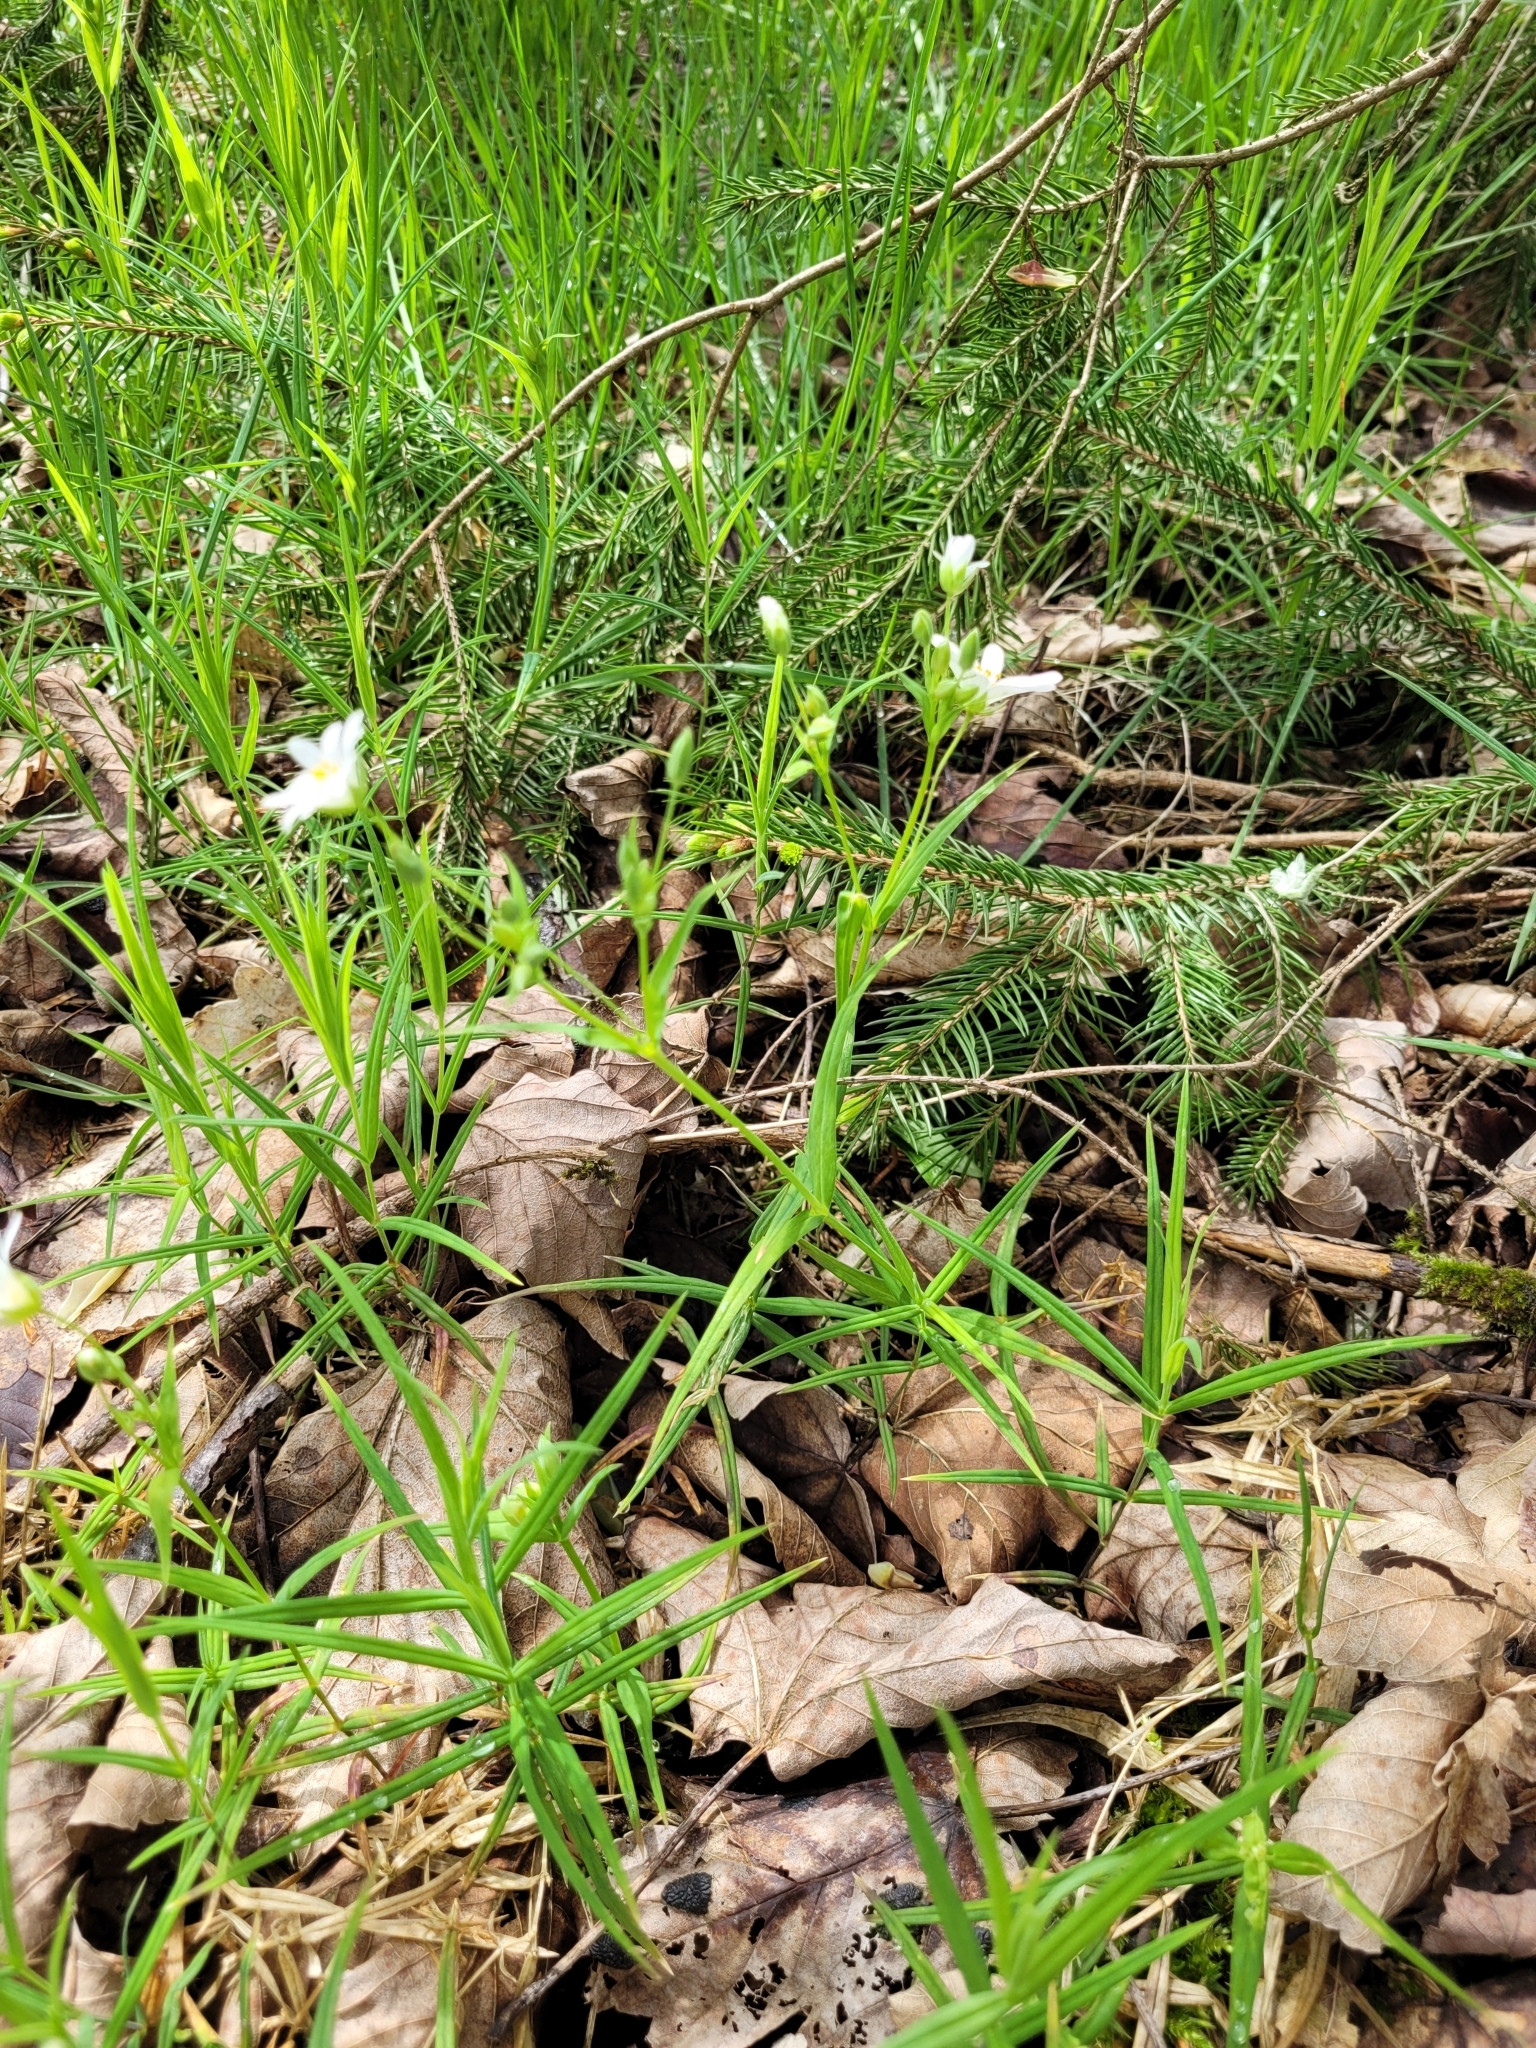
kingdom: Plantae
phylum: Tracheophyta
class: Magnoliopsida
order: Caryophyllales
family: Caryophyllaceae
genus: Rabelera
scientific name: Rabelera holostea
